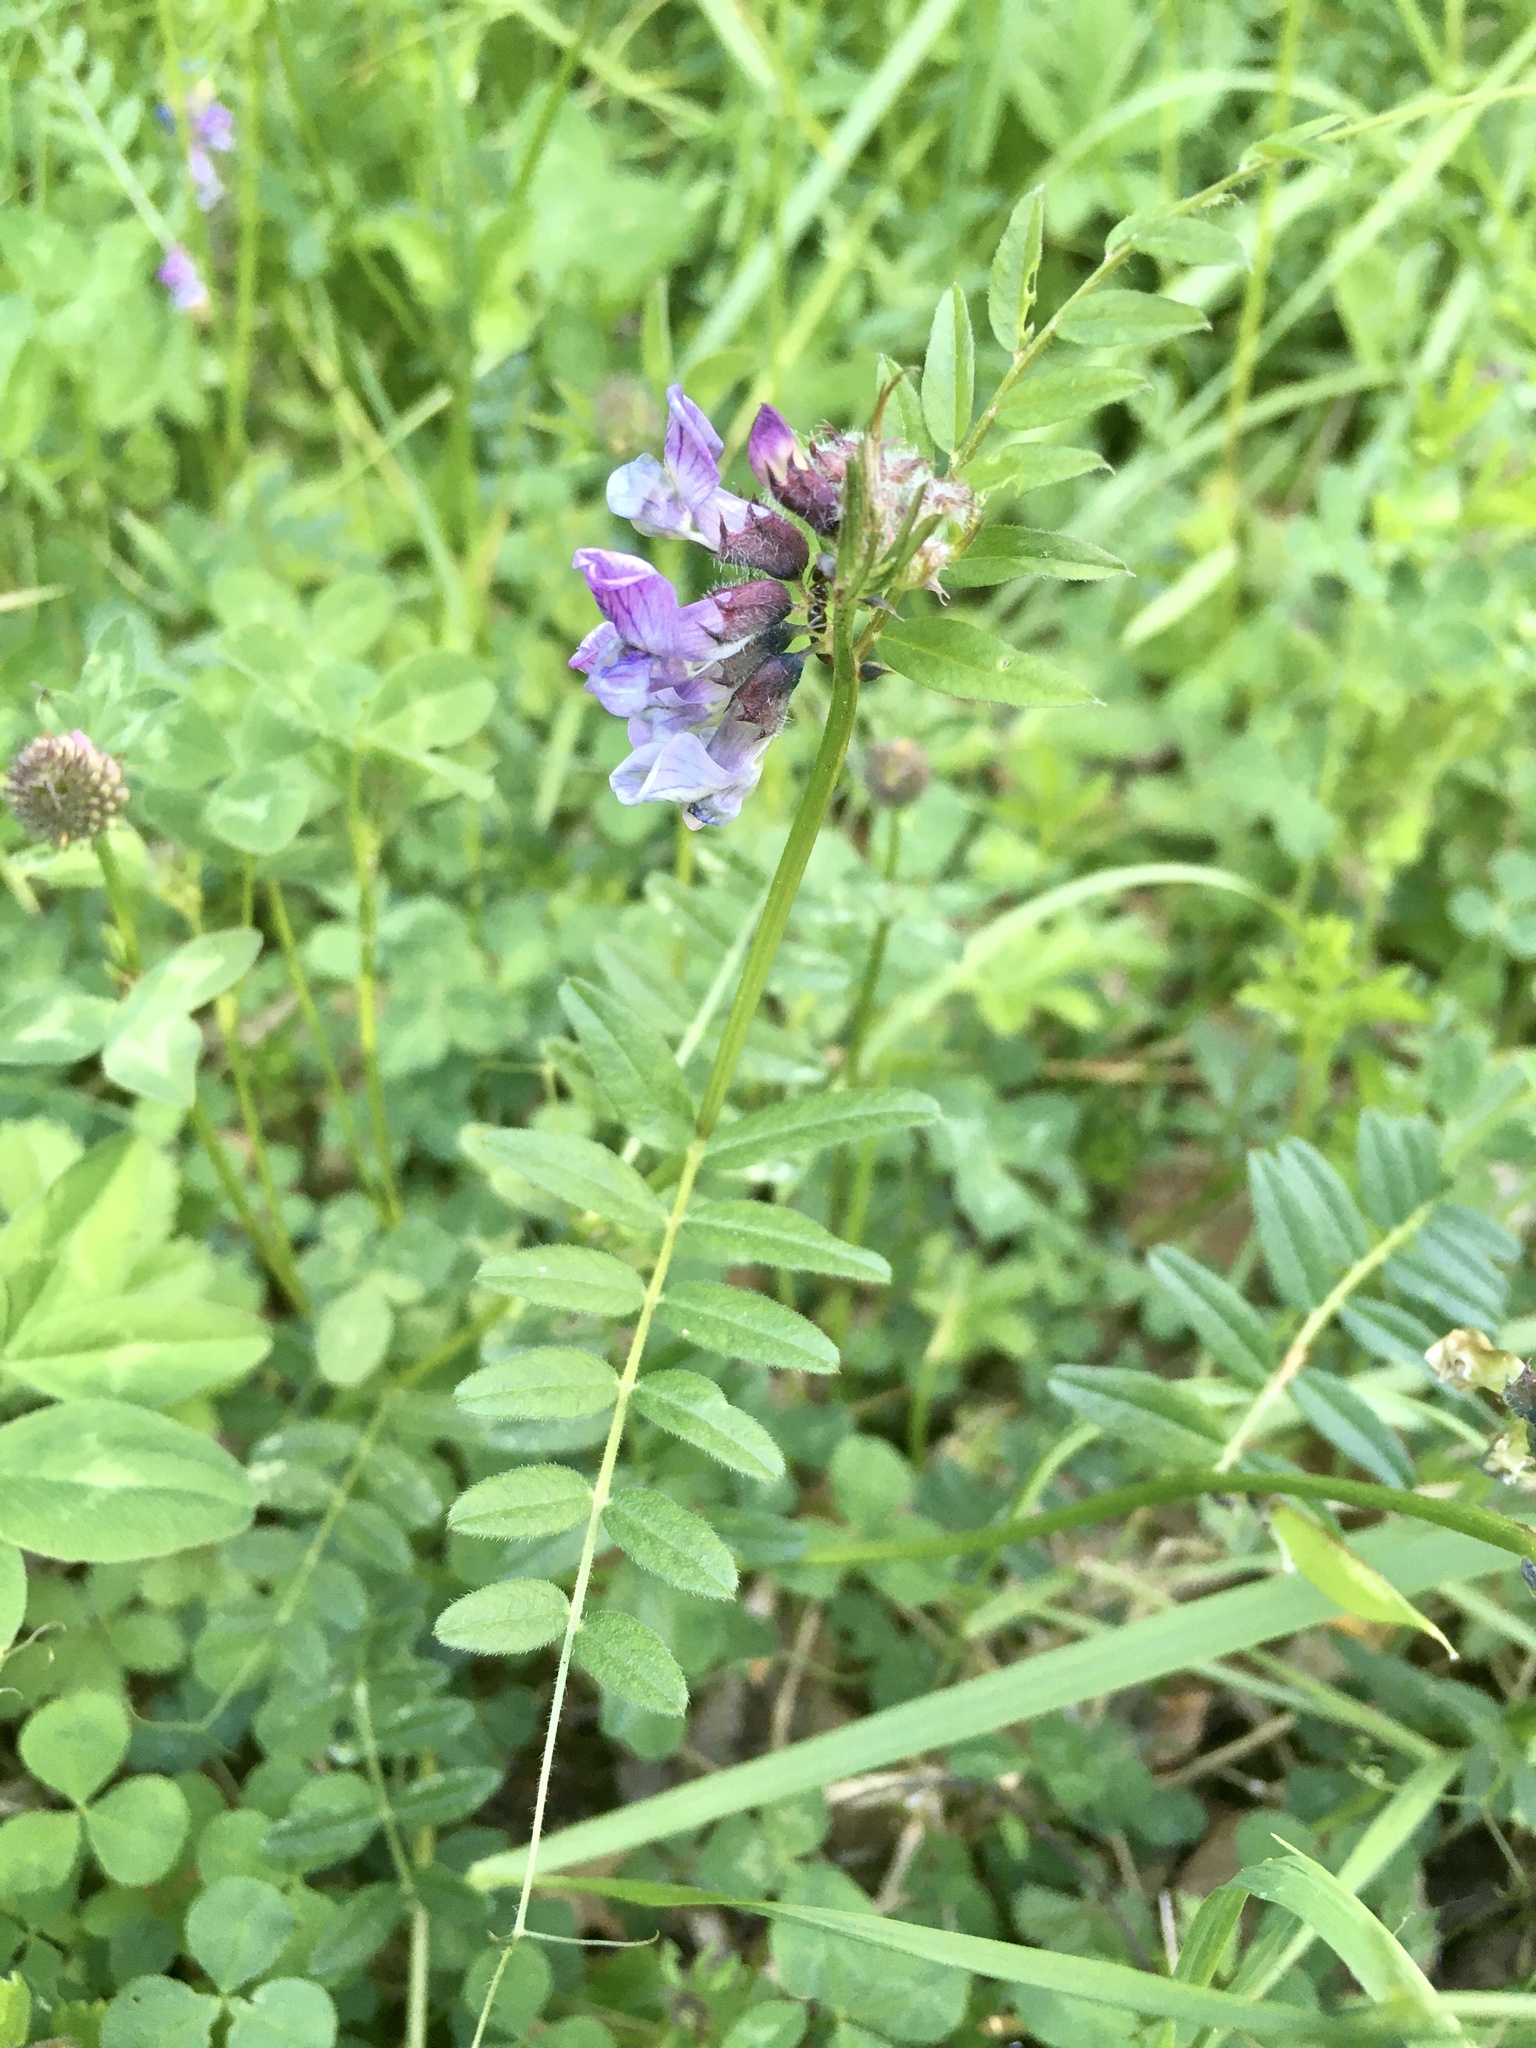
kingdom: Plantae
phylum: Tracheophyta
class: Magnoliopsida
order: Fabales
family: Fabaceae
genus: Vicia
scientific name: Vicia sepium
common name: Bush vetch
